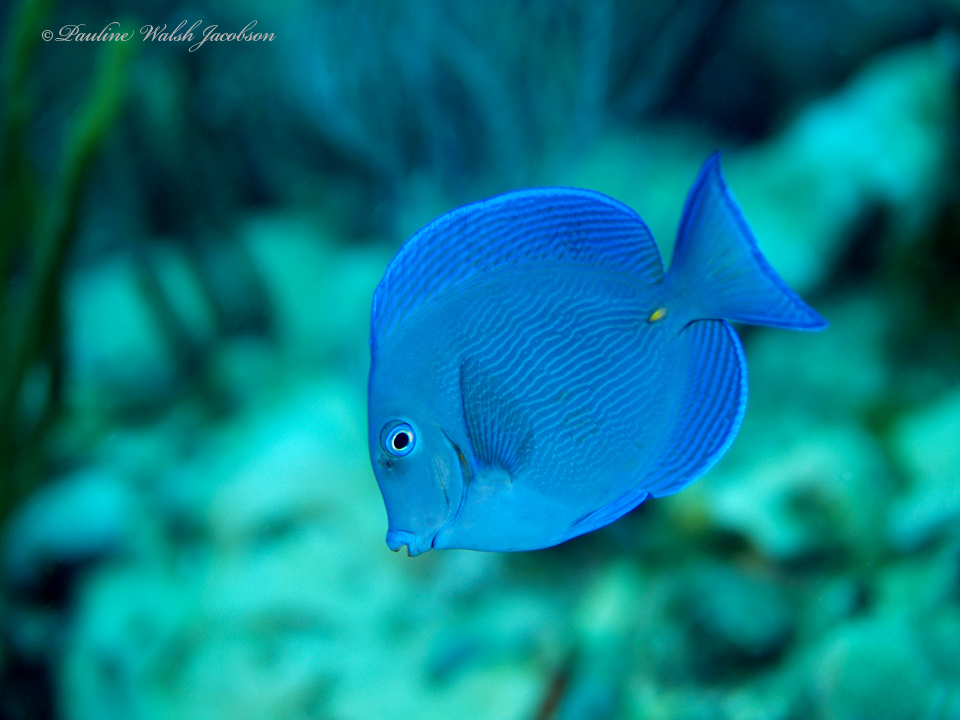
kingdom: Animalia
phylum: Chordata
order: Perciformes
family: Acanthuridae
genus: Acanthurus
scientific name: Acanthurus coeruleus
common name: Blue tang
